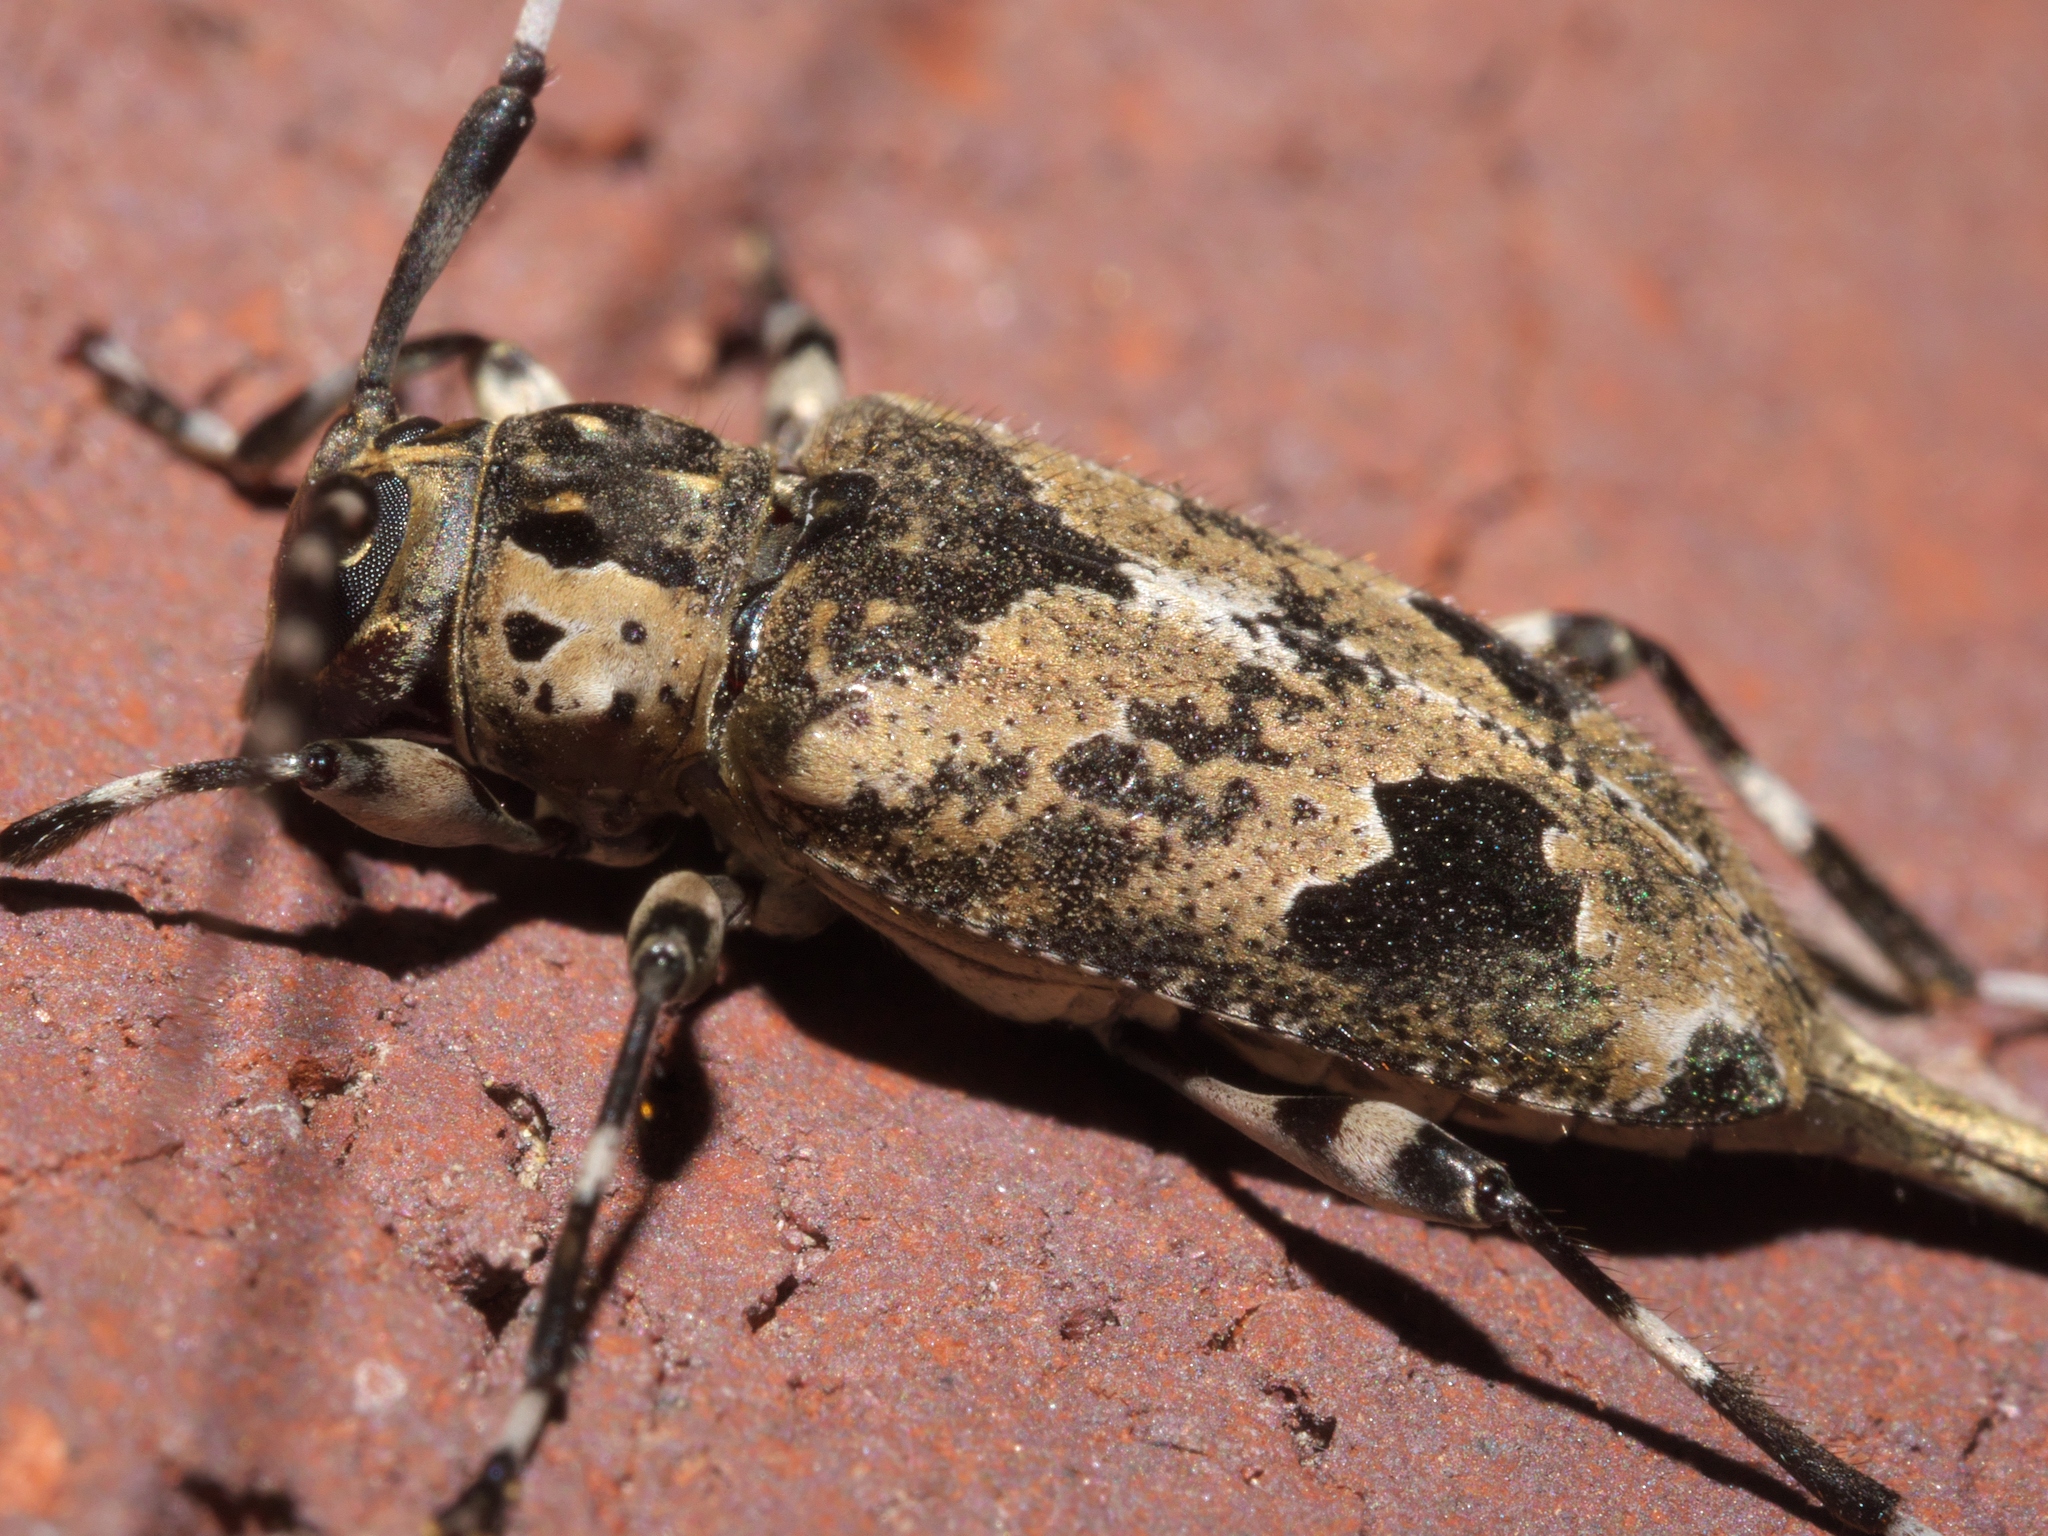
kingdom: Animalia
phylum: Arthropoda
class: Insecta
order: Coleoptera
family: Cerambycidae
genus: Graphisurus
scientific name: Graphisurus triangulifer
